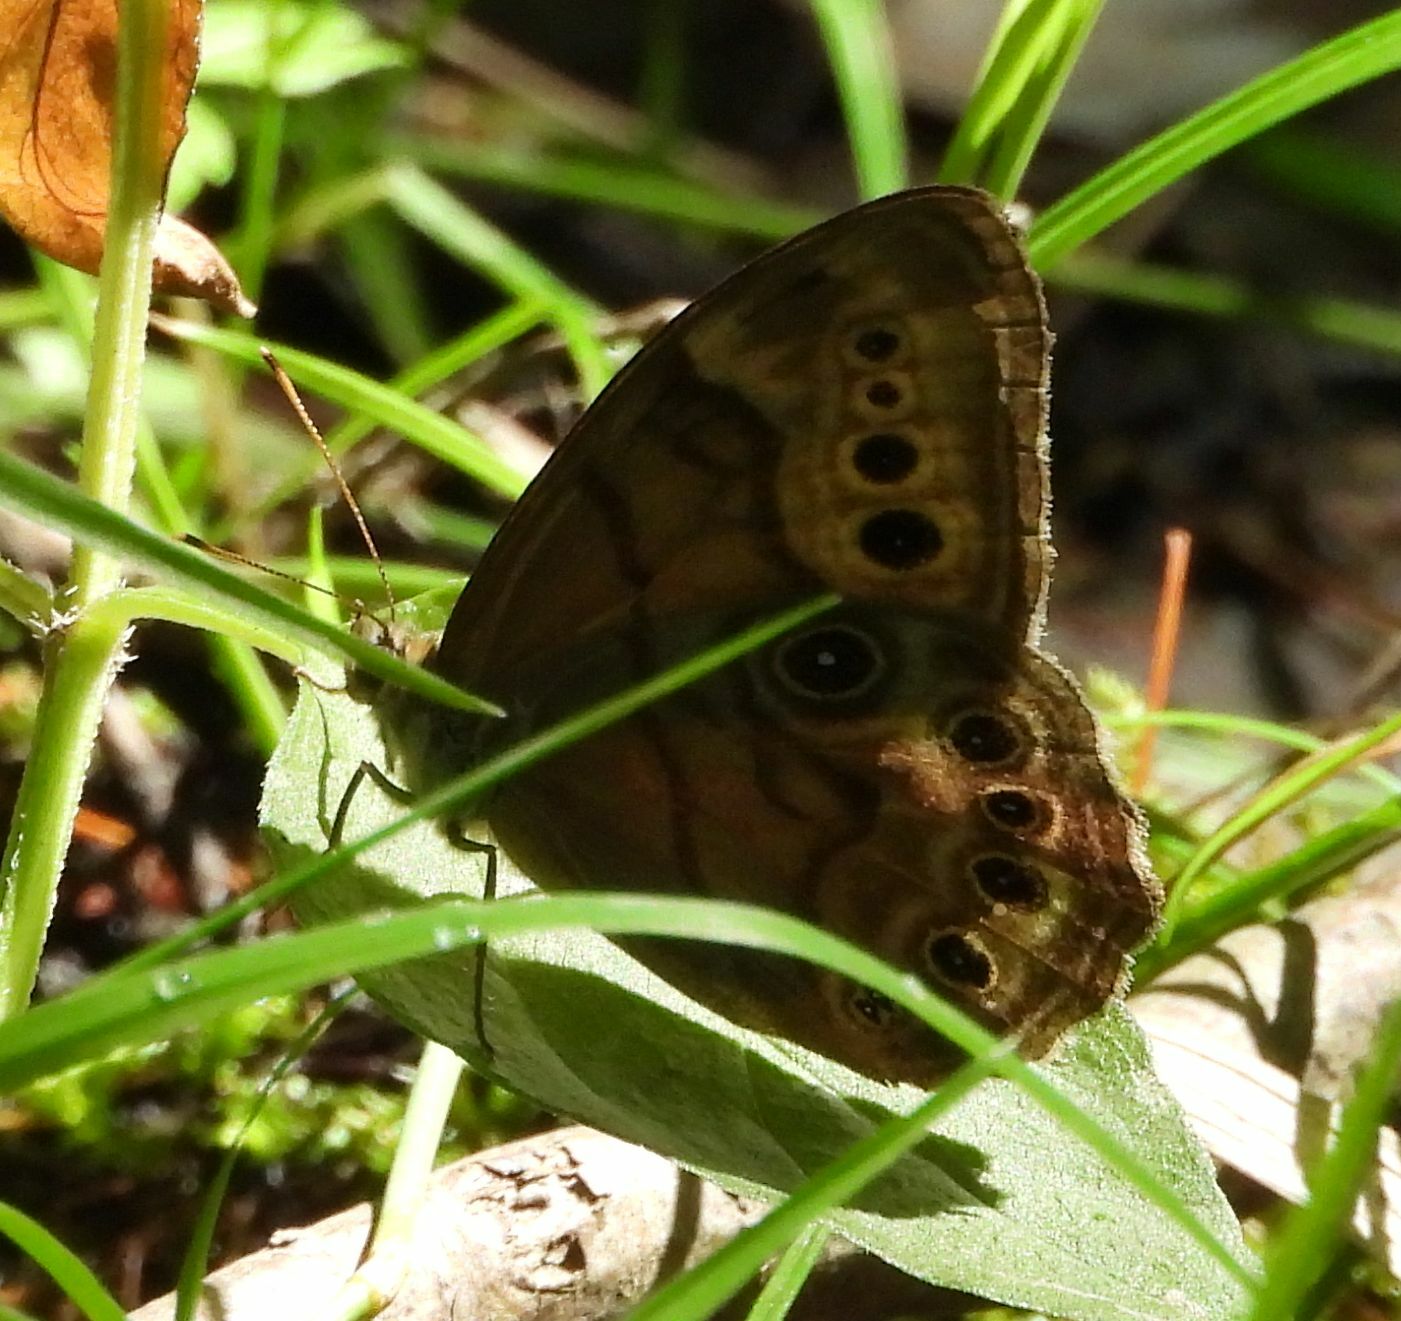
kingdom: Animalia
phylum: Arthropoda
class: Insecta
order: Lepidoptera
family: Nymphalidae
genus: Lethe
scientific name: Lethe anthedon
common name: Northern pearly-eye
